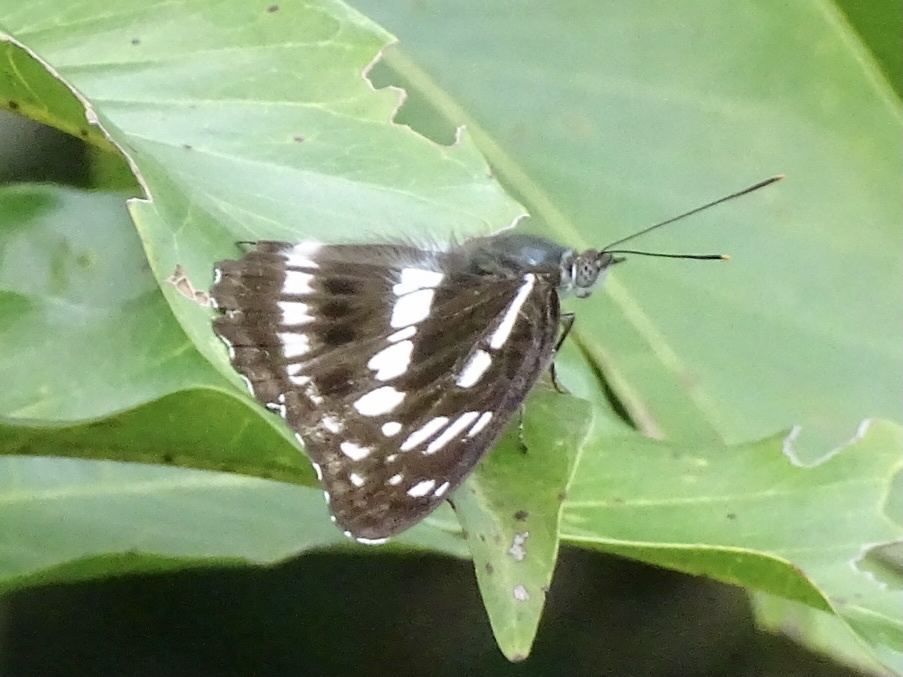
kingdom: Animalia
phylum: Arthropoda
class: Insecta
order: Lepidoptera
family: Nymphalidae
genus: Limenitis
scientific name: Limenitis sulpitia
